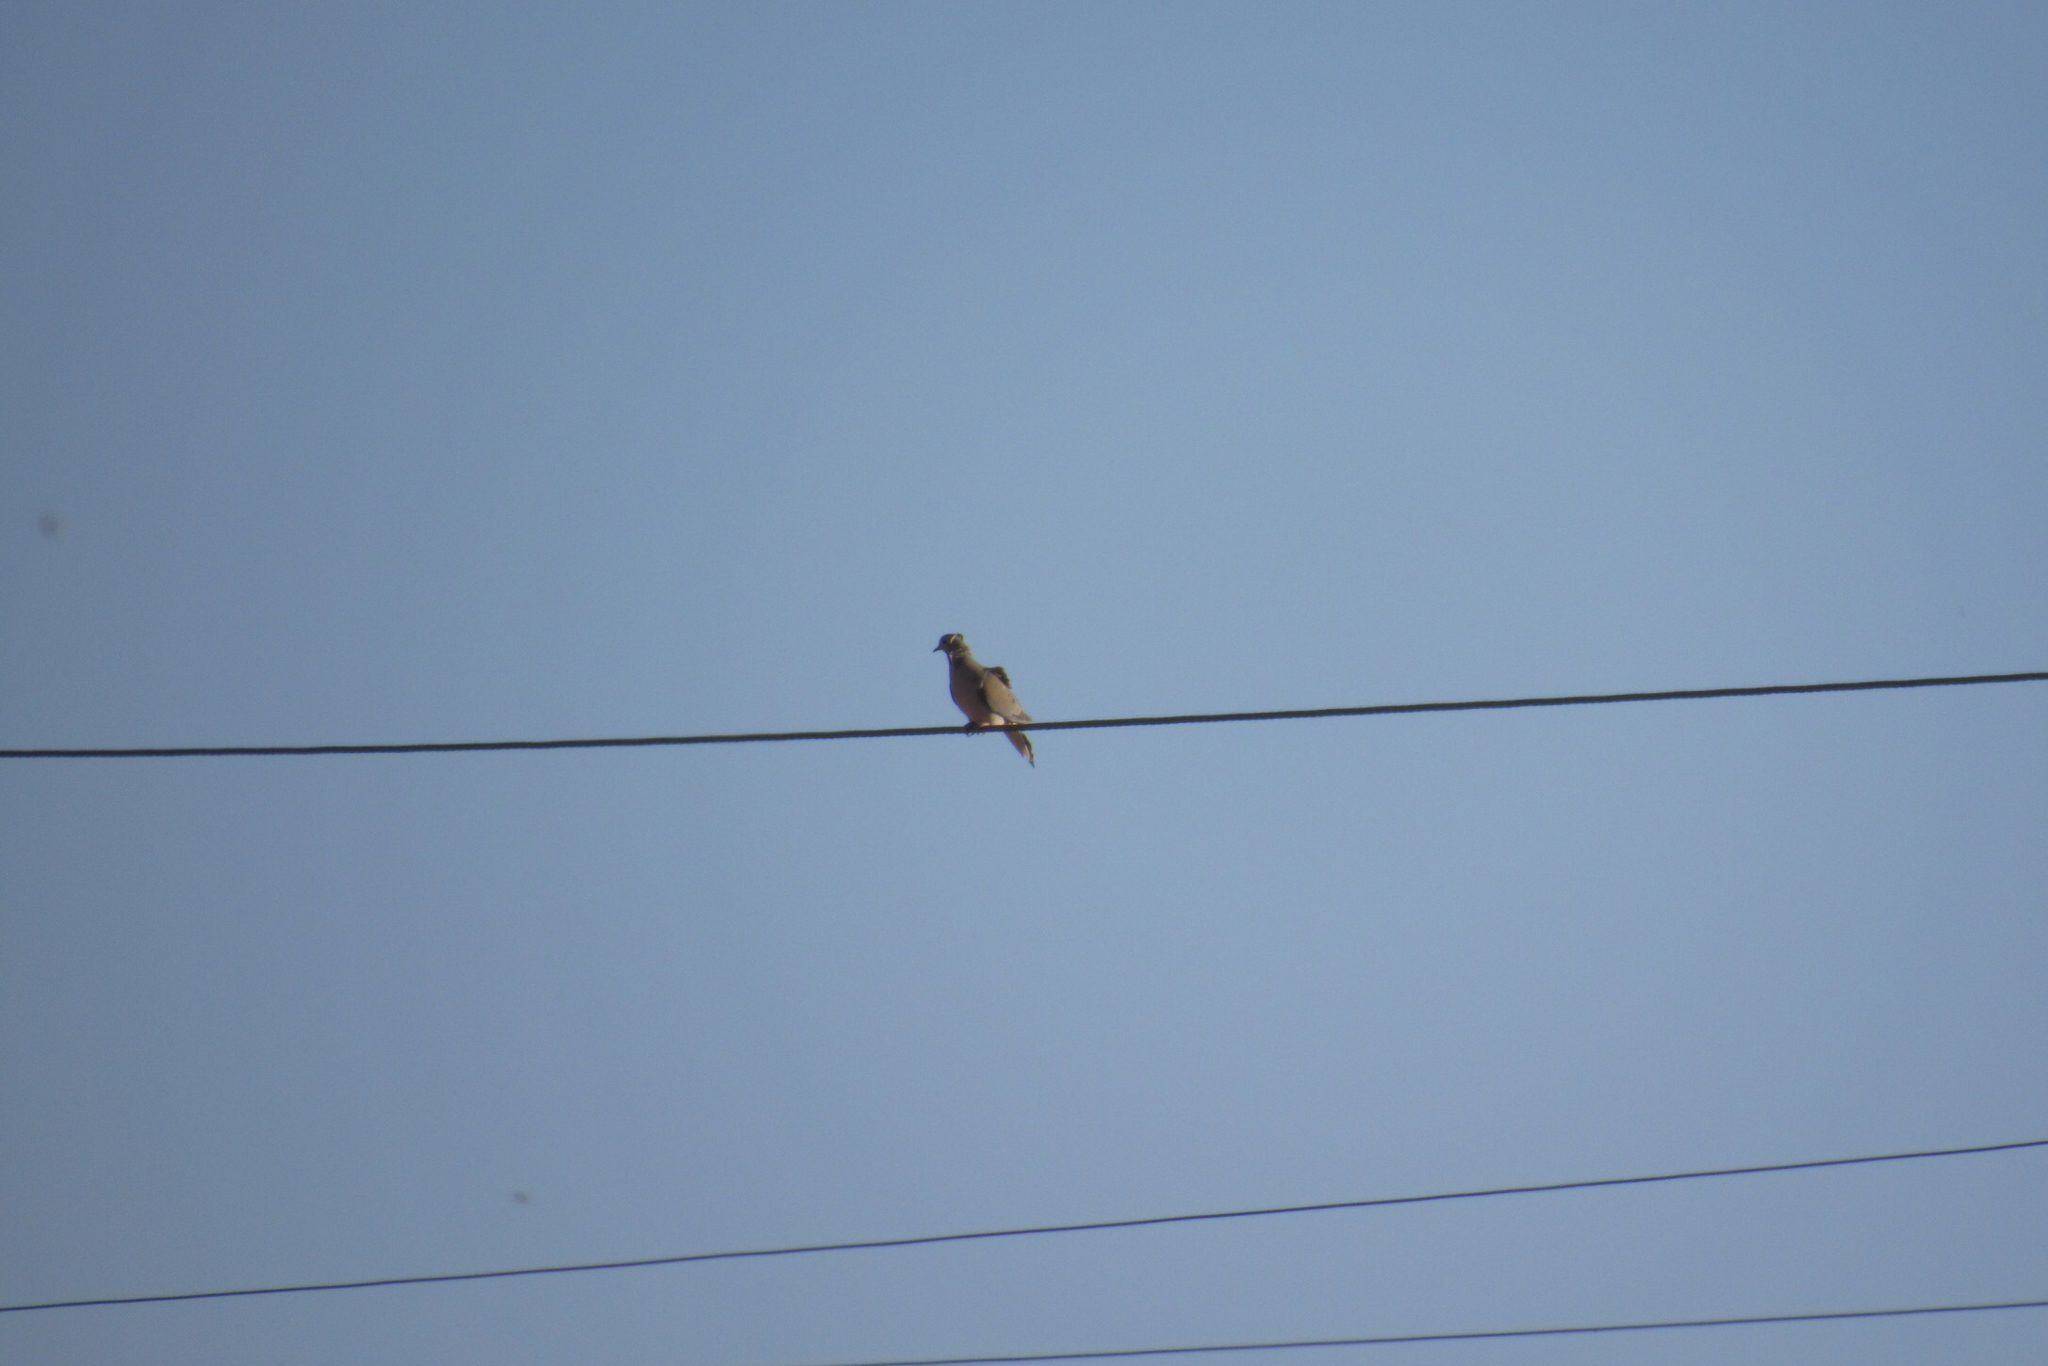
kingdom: Animalia
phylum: Chordata
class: Aves
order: Columbiformes
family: Columbidae
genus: Zenaida
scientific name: Zenaida macroura
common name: Mourning dove
